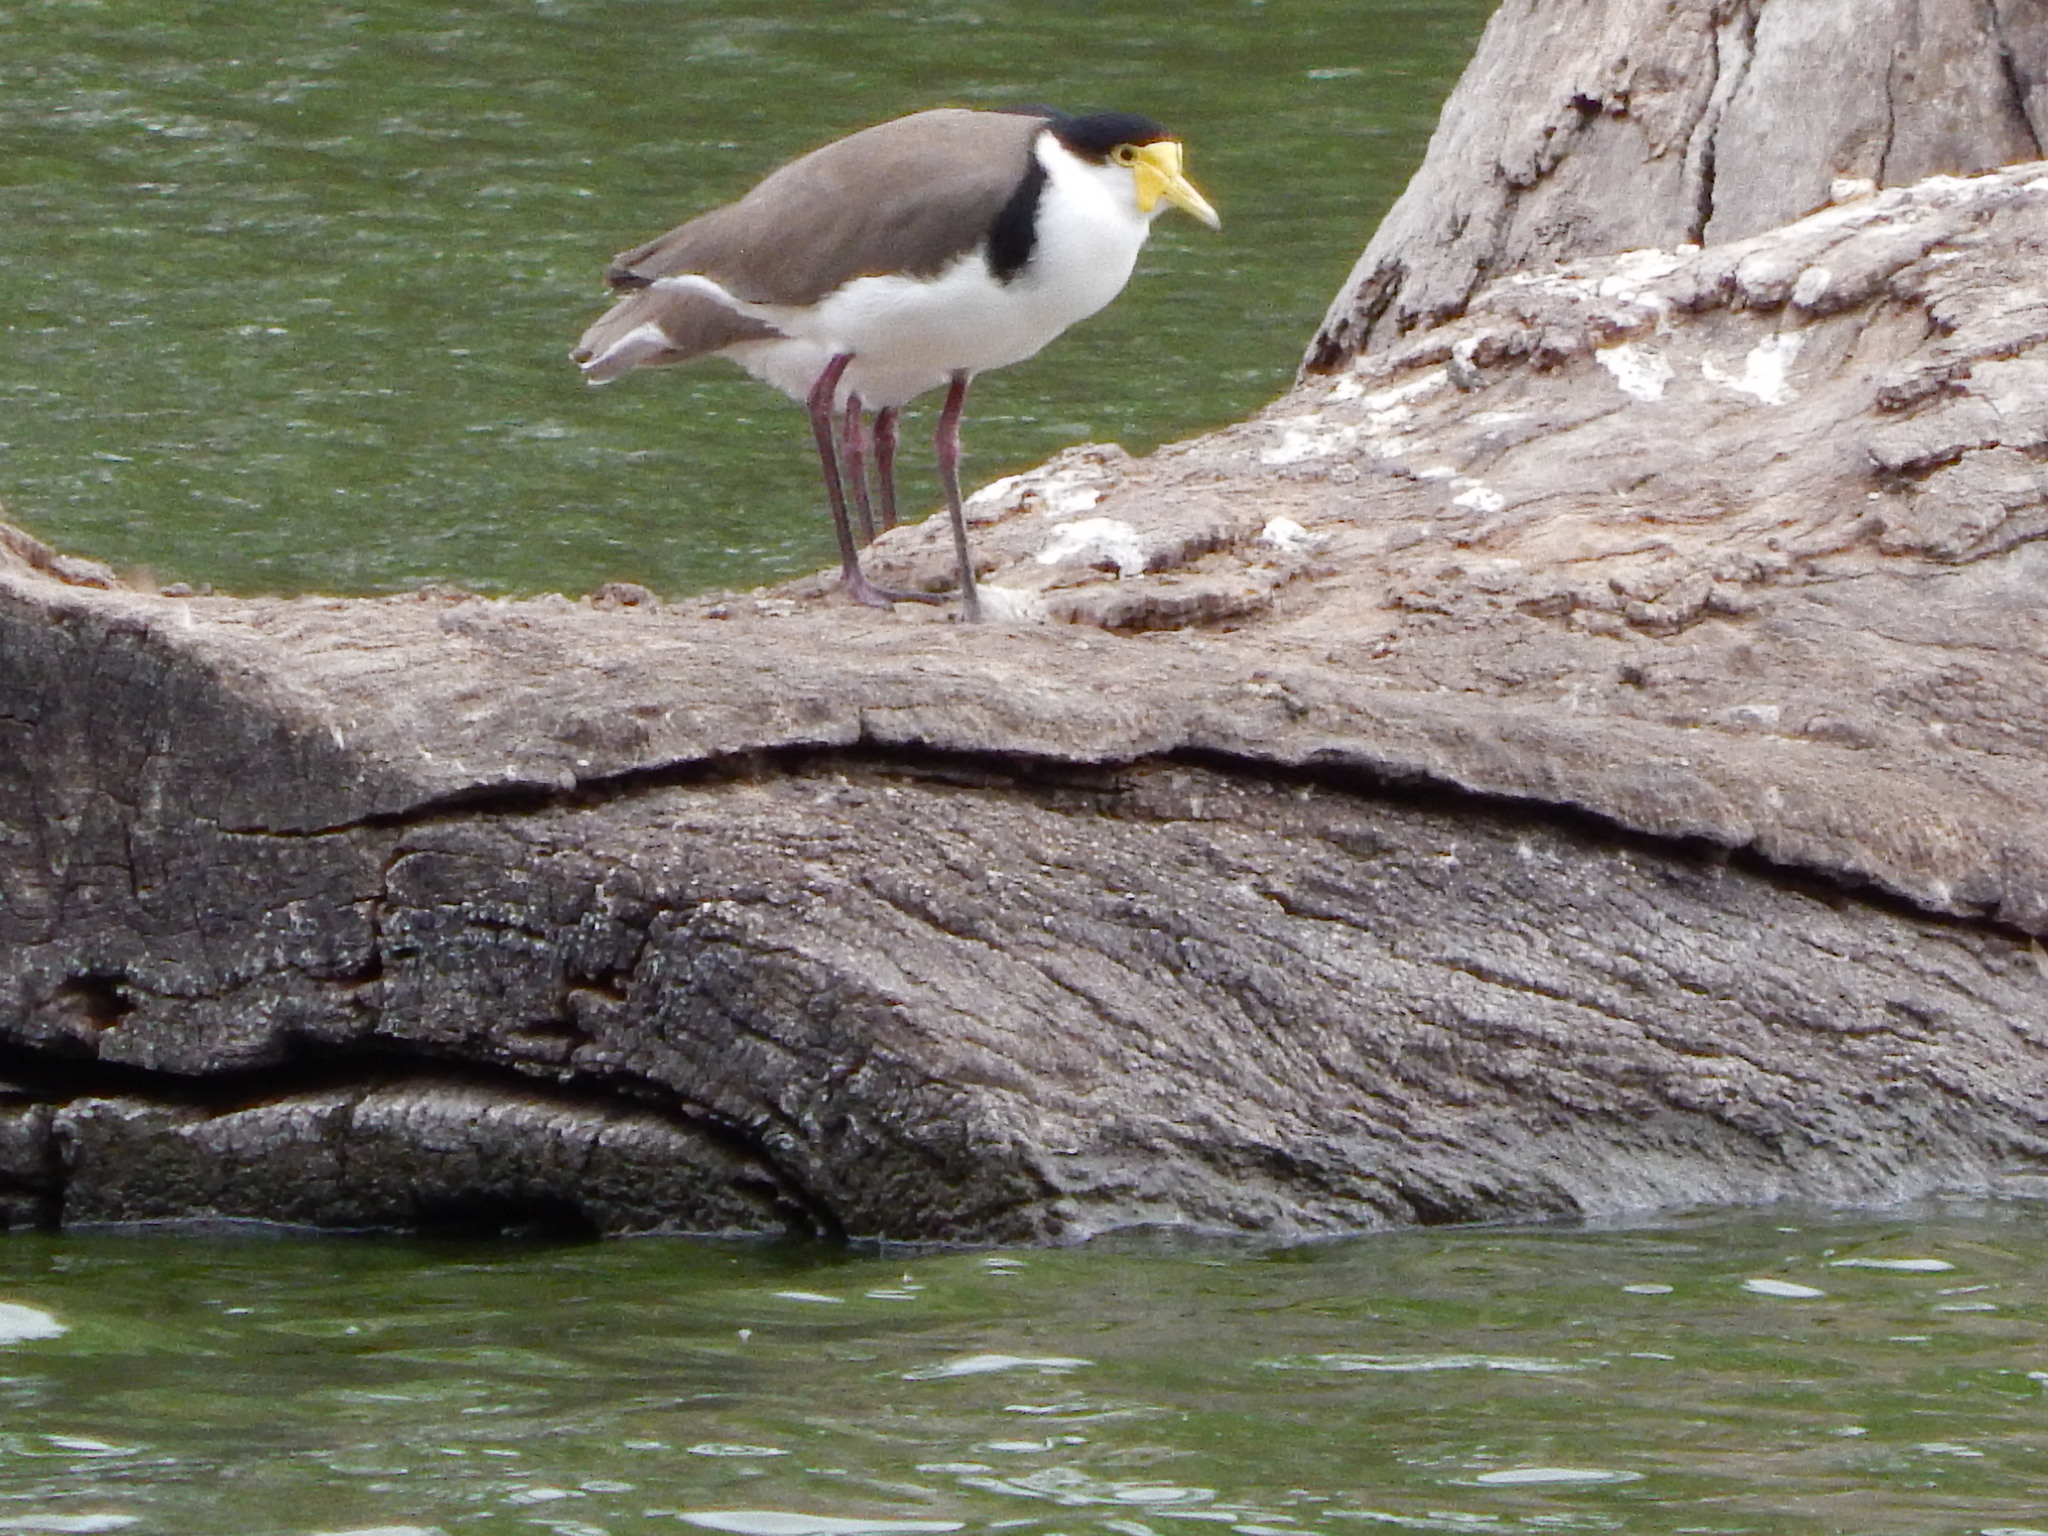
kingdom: Animalia
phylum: Chordata
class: Aves
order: Charadriiformes
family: Charadriidae
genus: Vanellus
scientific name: Vanellus miles
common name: Masked lapwing
